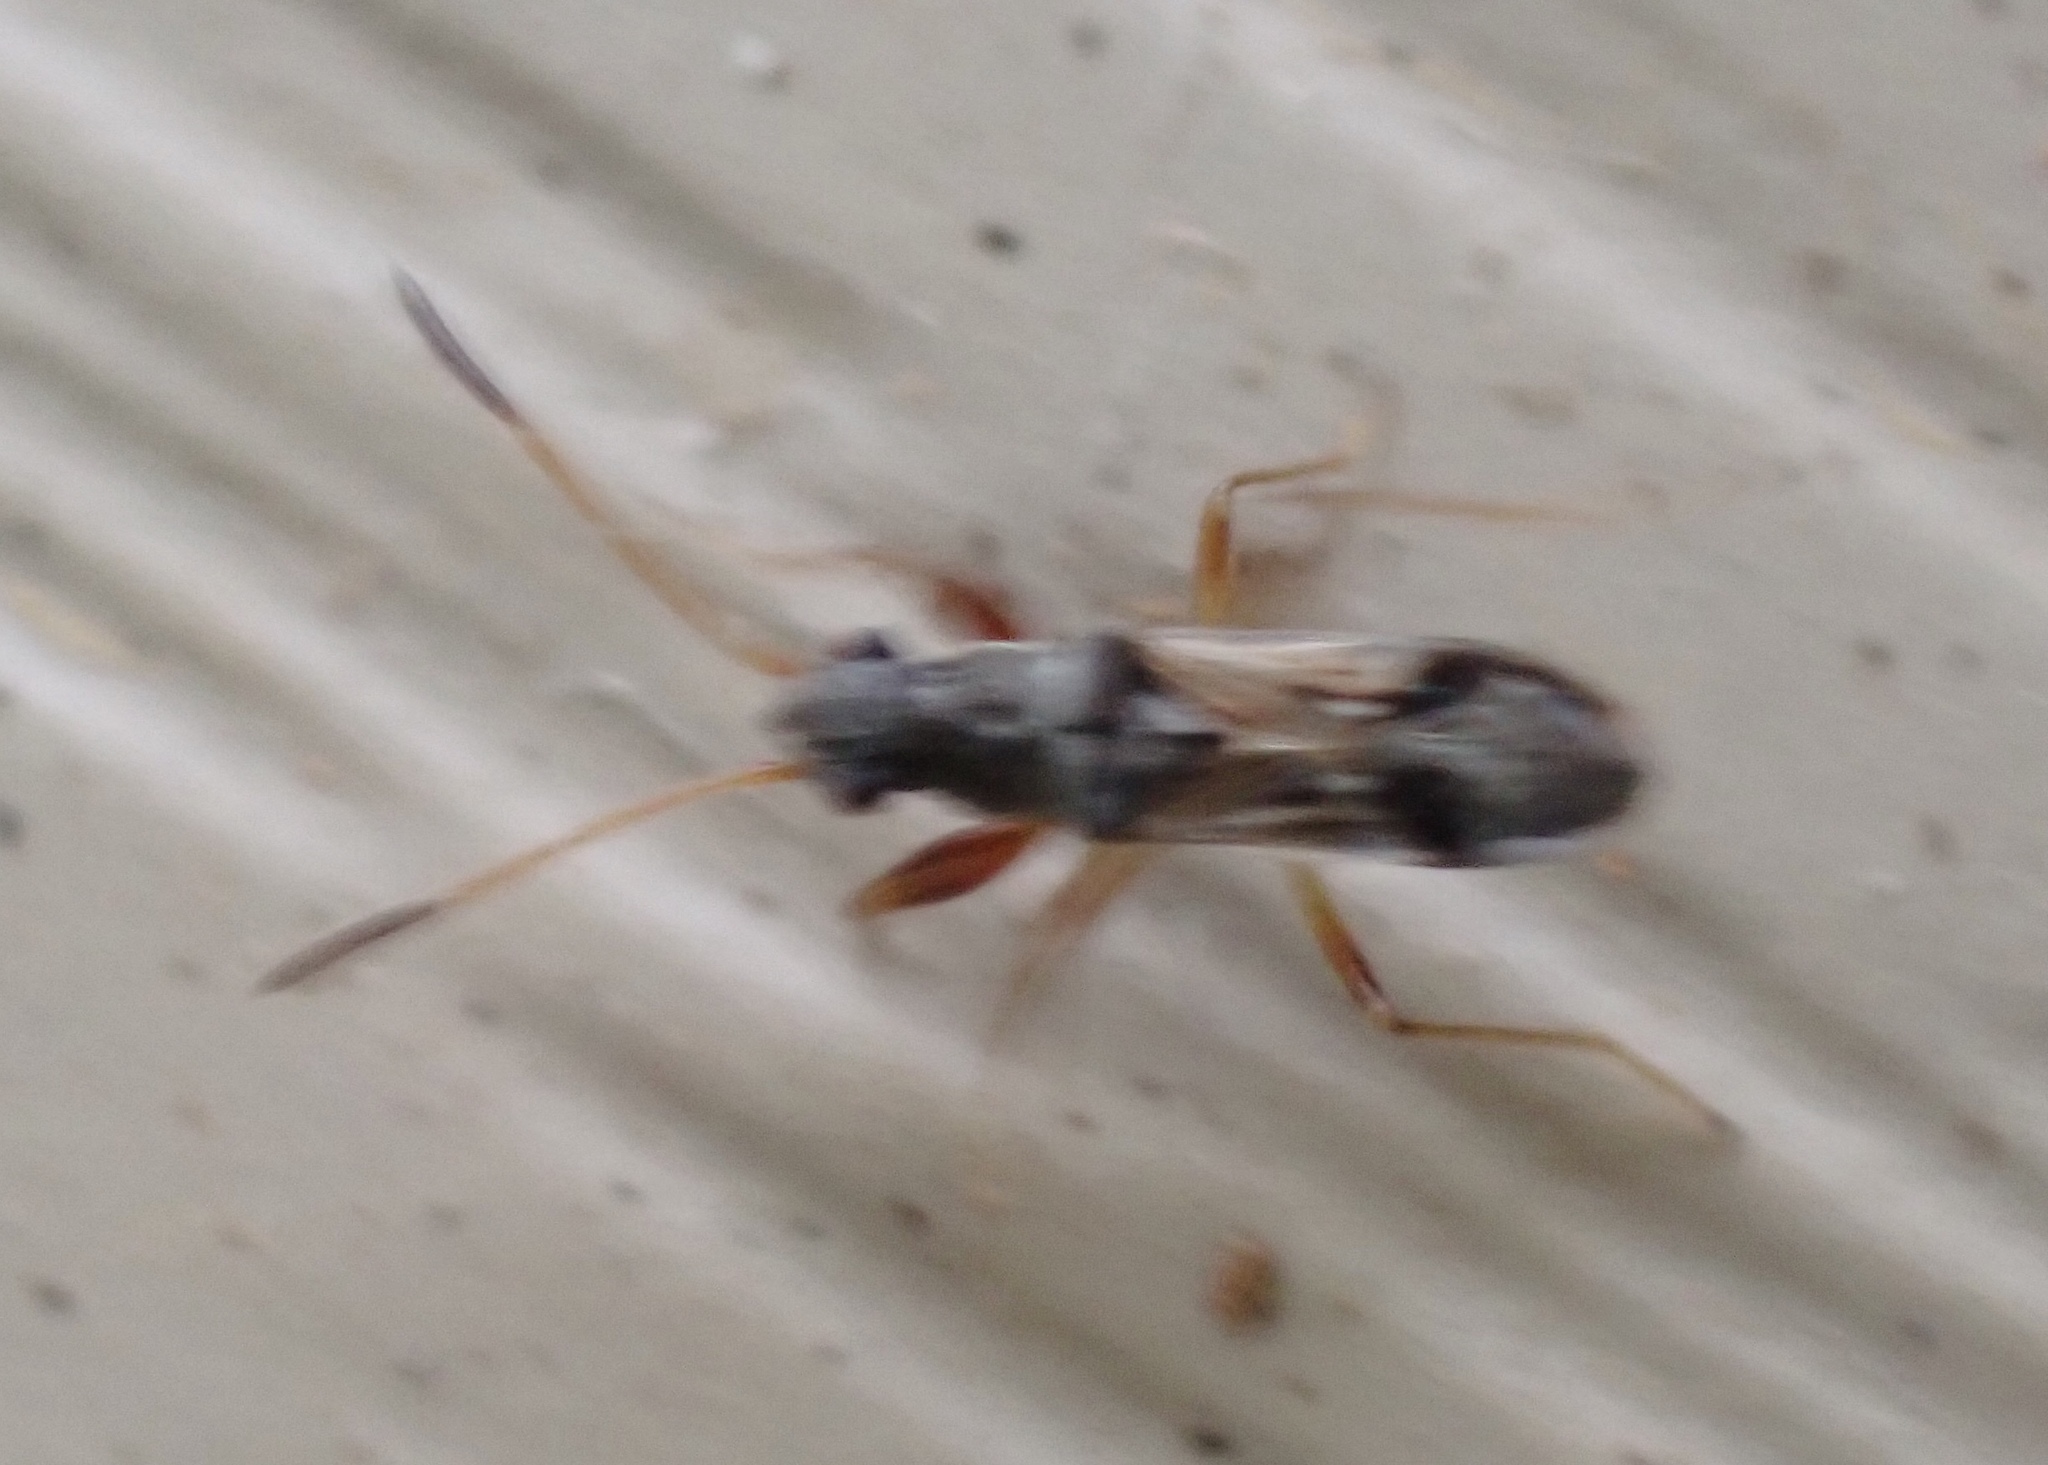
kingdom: Animalia
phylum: Arthropoda
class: Insecta
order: Hemiptera
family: Rhyparochromidae
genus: Pseudopachybrachius
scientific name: Pseudopachybrachius vinctus
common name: Dirt-colored seed bug
